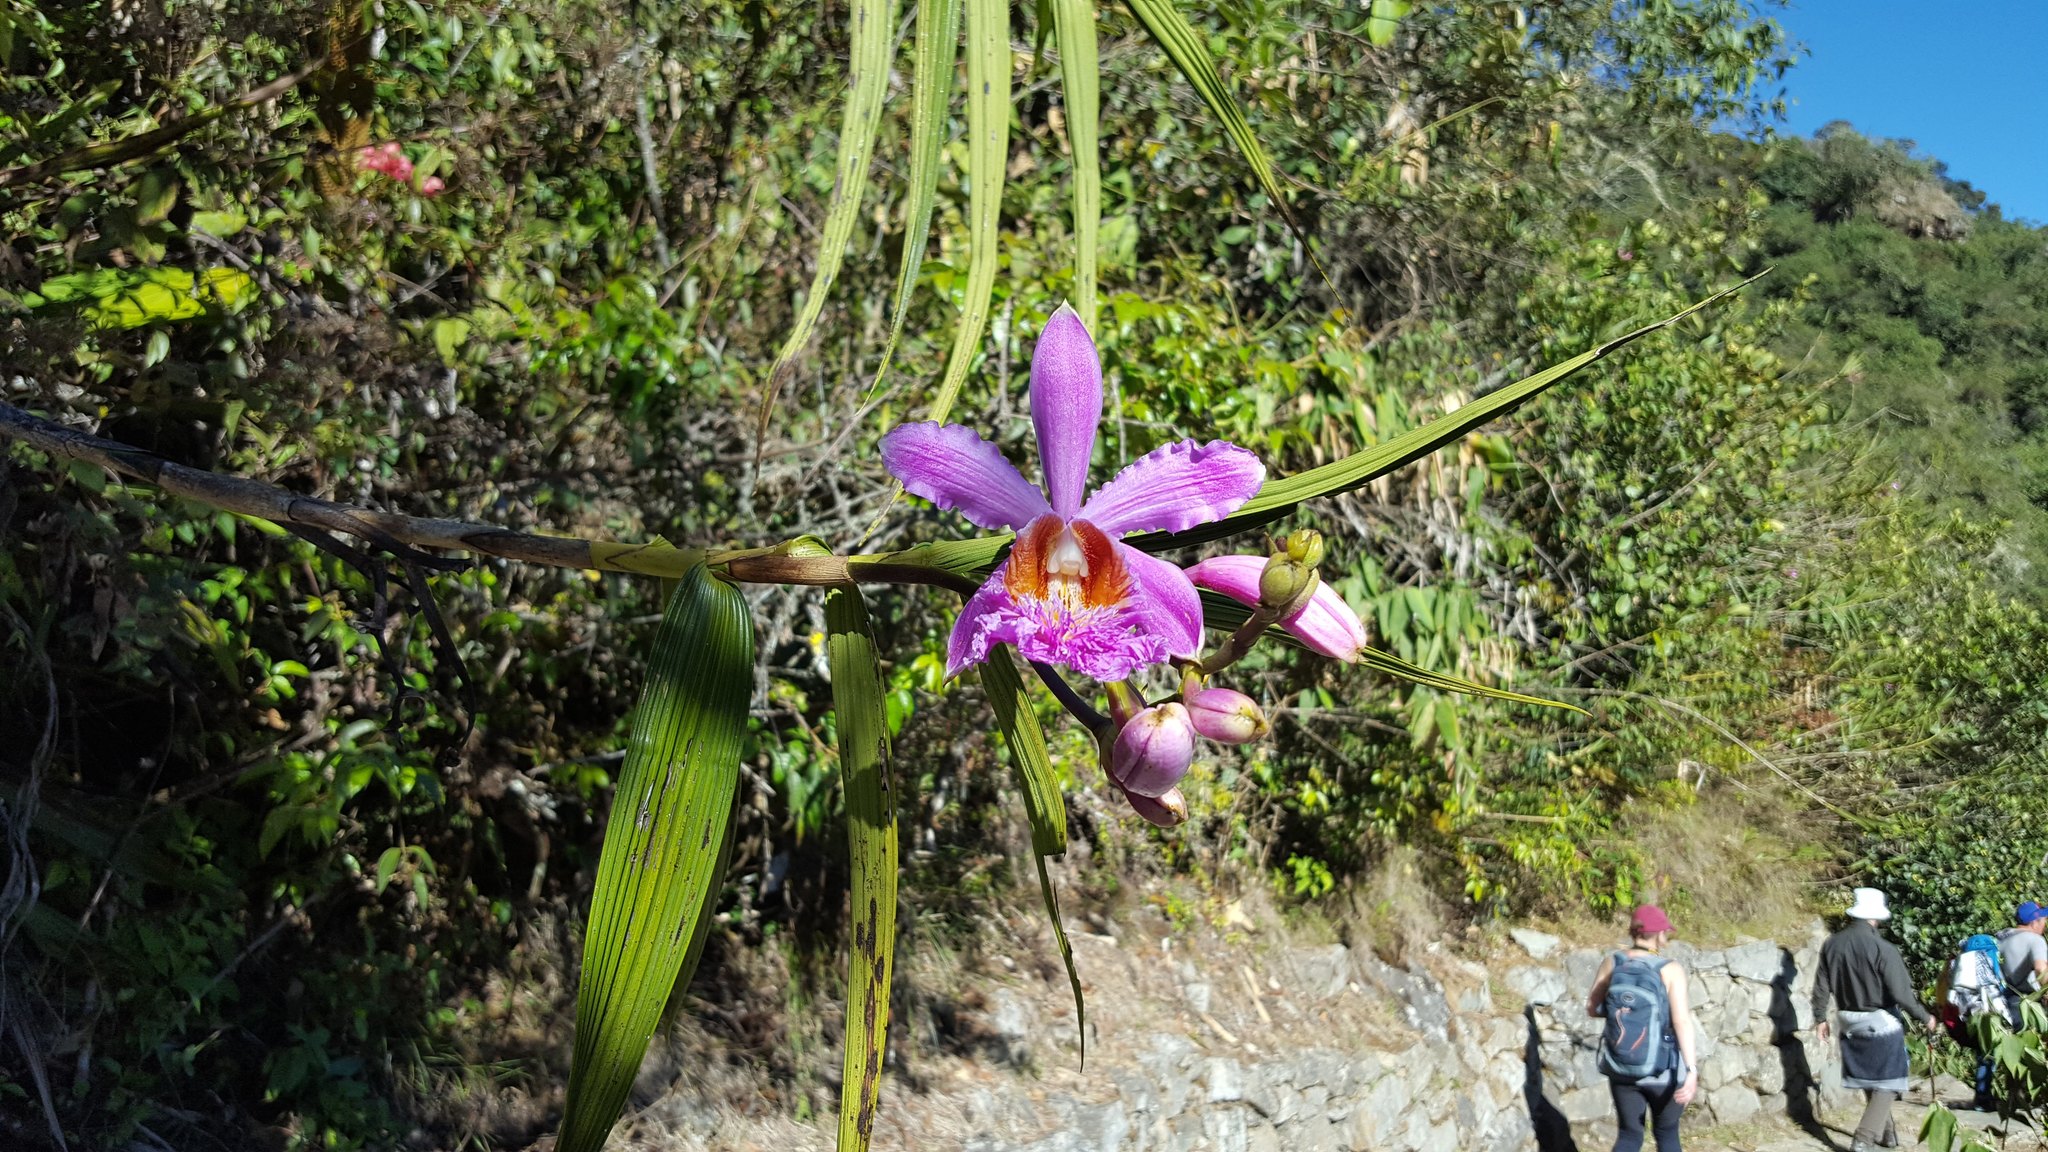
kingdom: Plantae
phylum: Tracheophyta
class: Liliopsida
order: Asparagales
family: Orchidaceae
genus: Sobralia
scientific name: Sobralia dichotoma
